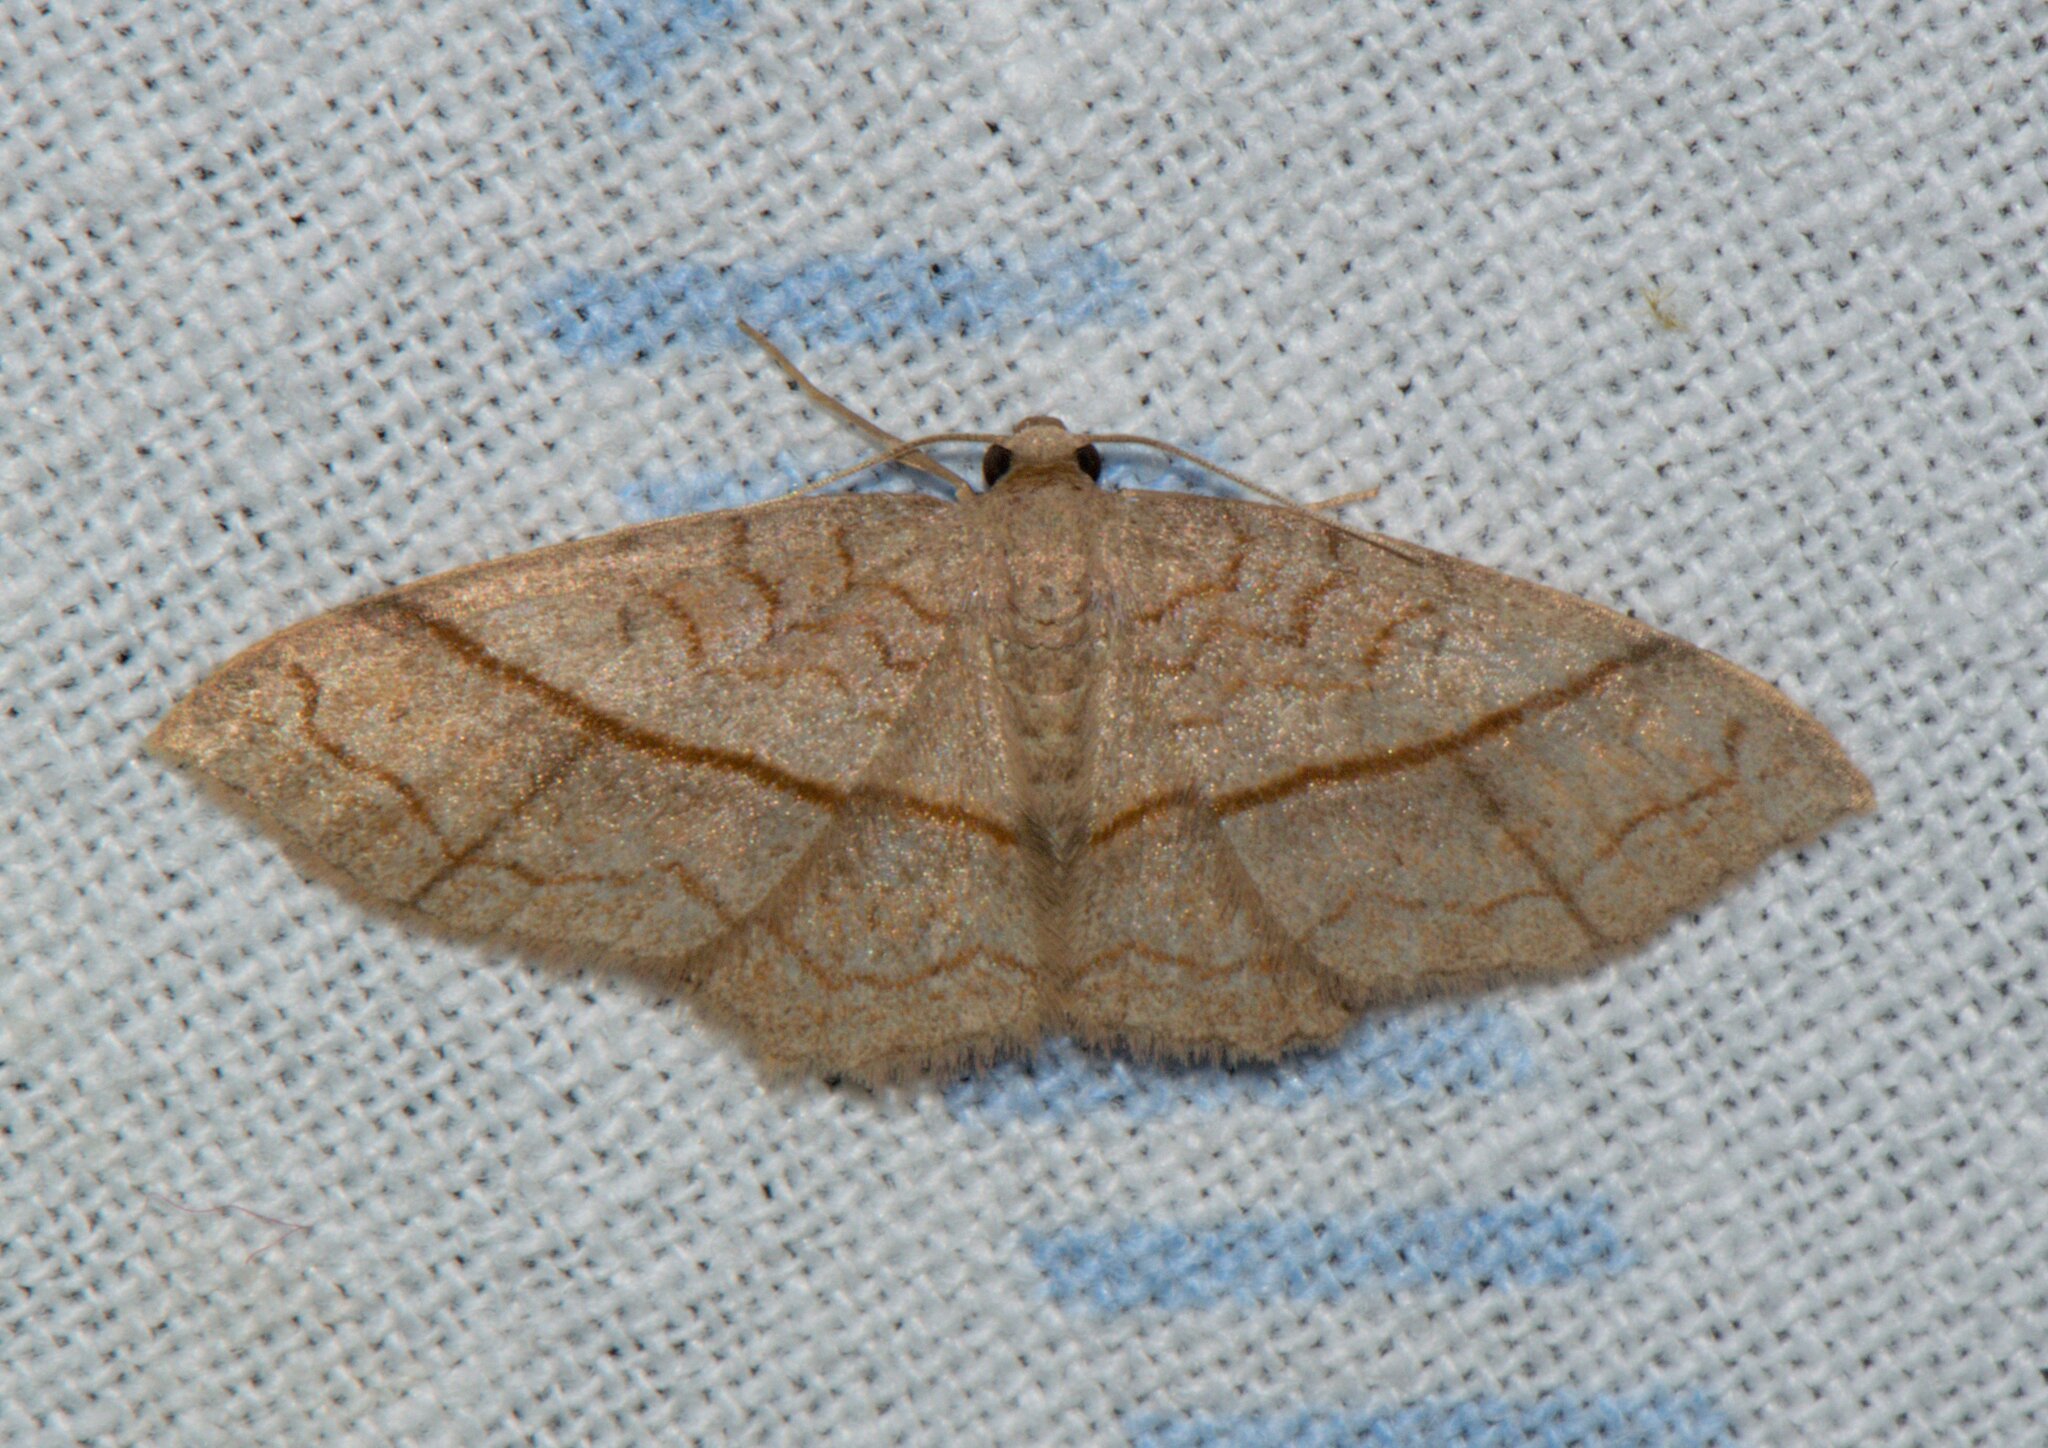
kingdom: Animalia
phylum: Arthropoda
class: Insecta
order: Lepidoptera
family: Geometridae
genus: Hydrelia
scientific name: Hydrelia sericea
